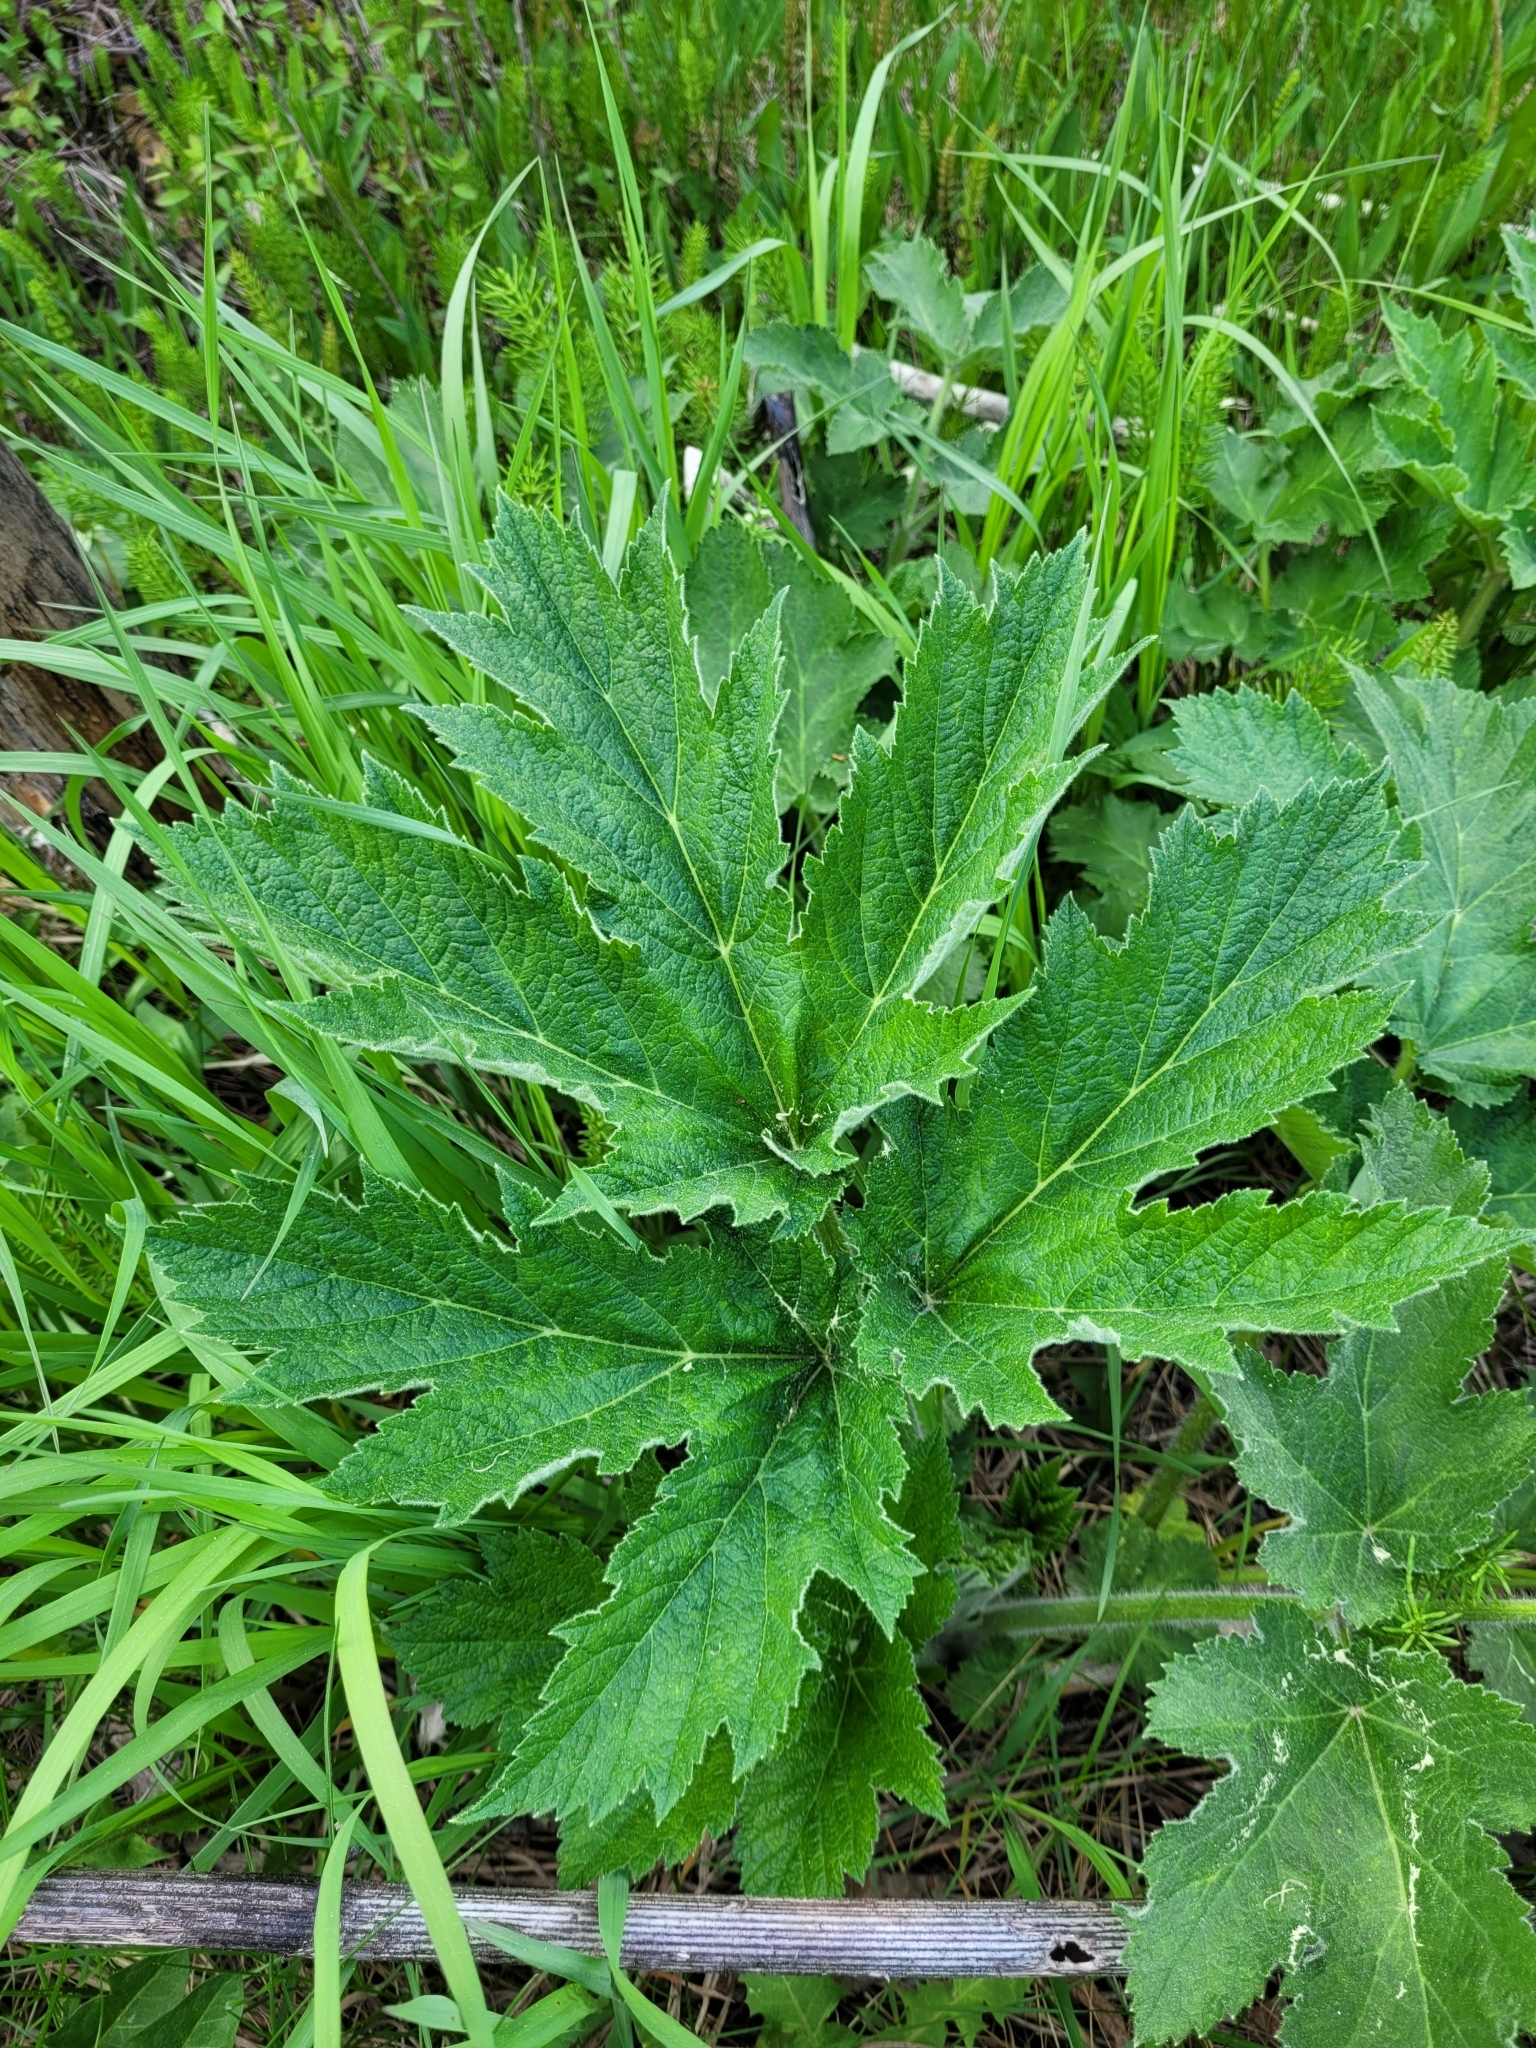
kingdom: Plantae
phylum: Tracheophyta
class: Magnoliopsida
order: Apiales
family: Apiaceae
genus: Heracleum
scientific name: Heracleum maximum
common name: American cow parsnip
